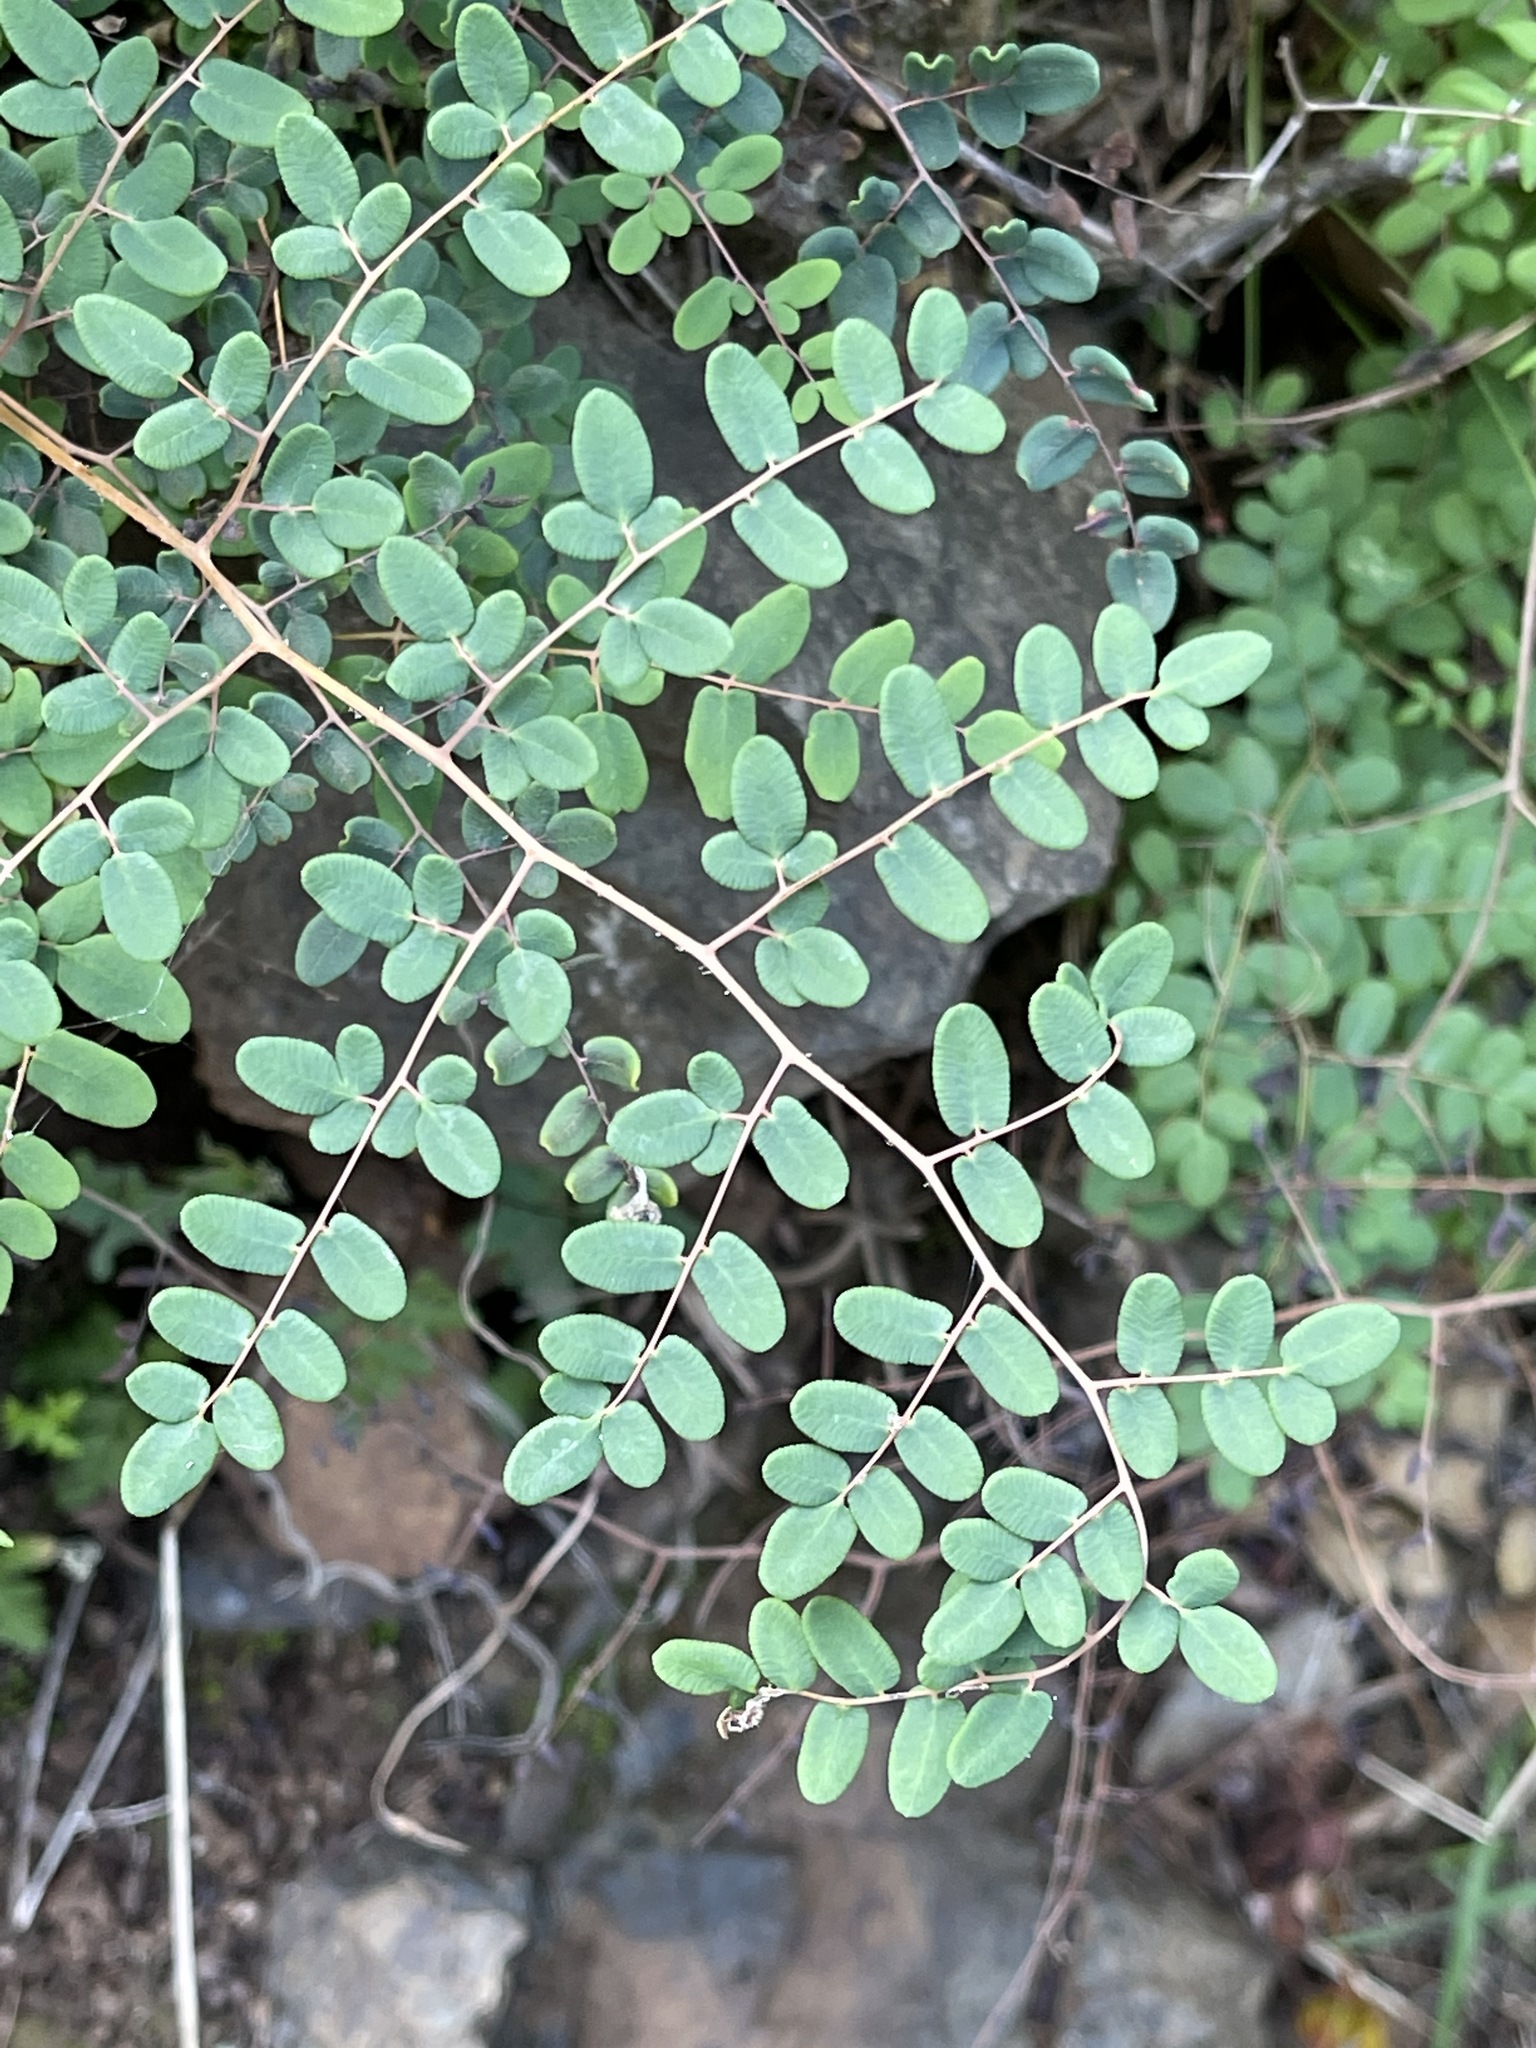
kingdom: Plantae
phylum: Tracheophyta
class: Polypodiopsida
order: Polypodiales
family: Pteridaceae
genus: Pellaea
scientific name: Pellaea andromedifolia
